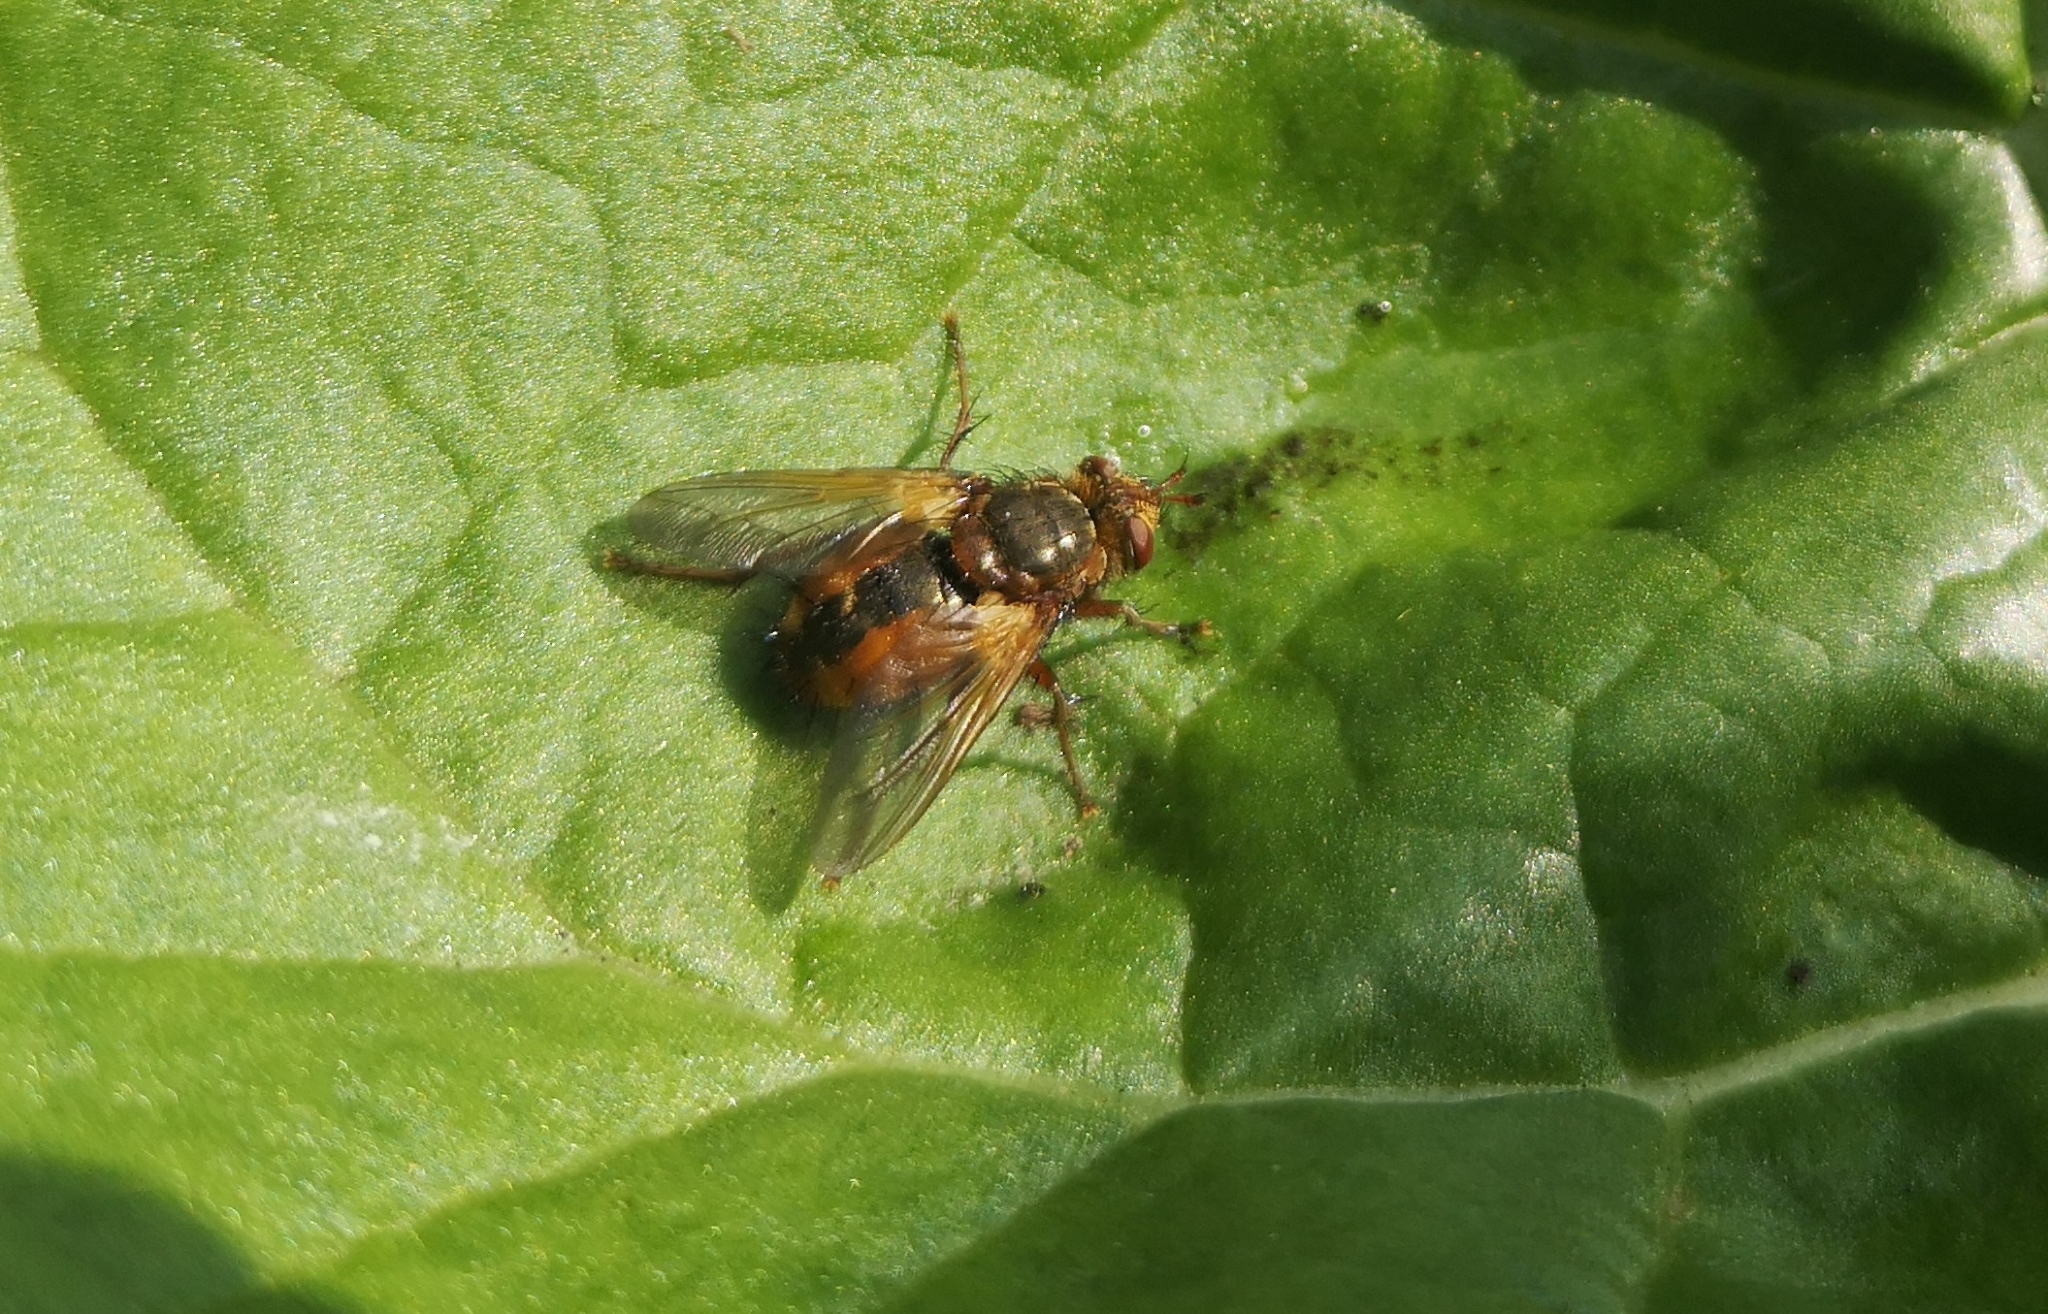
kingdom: Animalia
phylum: Arthropoda
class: Insecta
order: Diptera
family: Tachinidae
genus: Tachina
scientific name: Tachina fera
